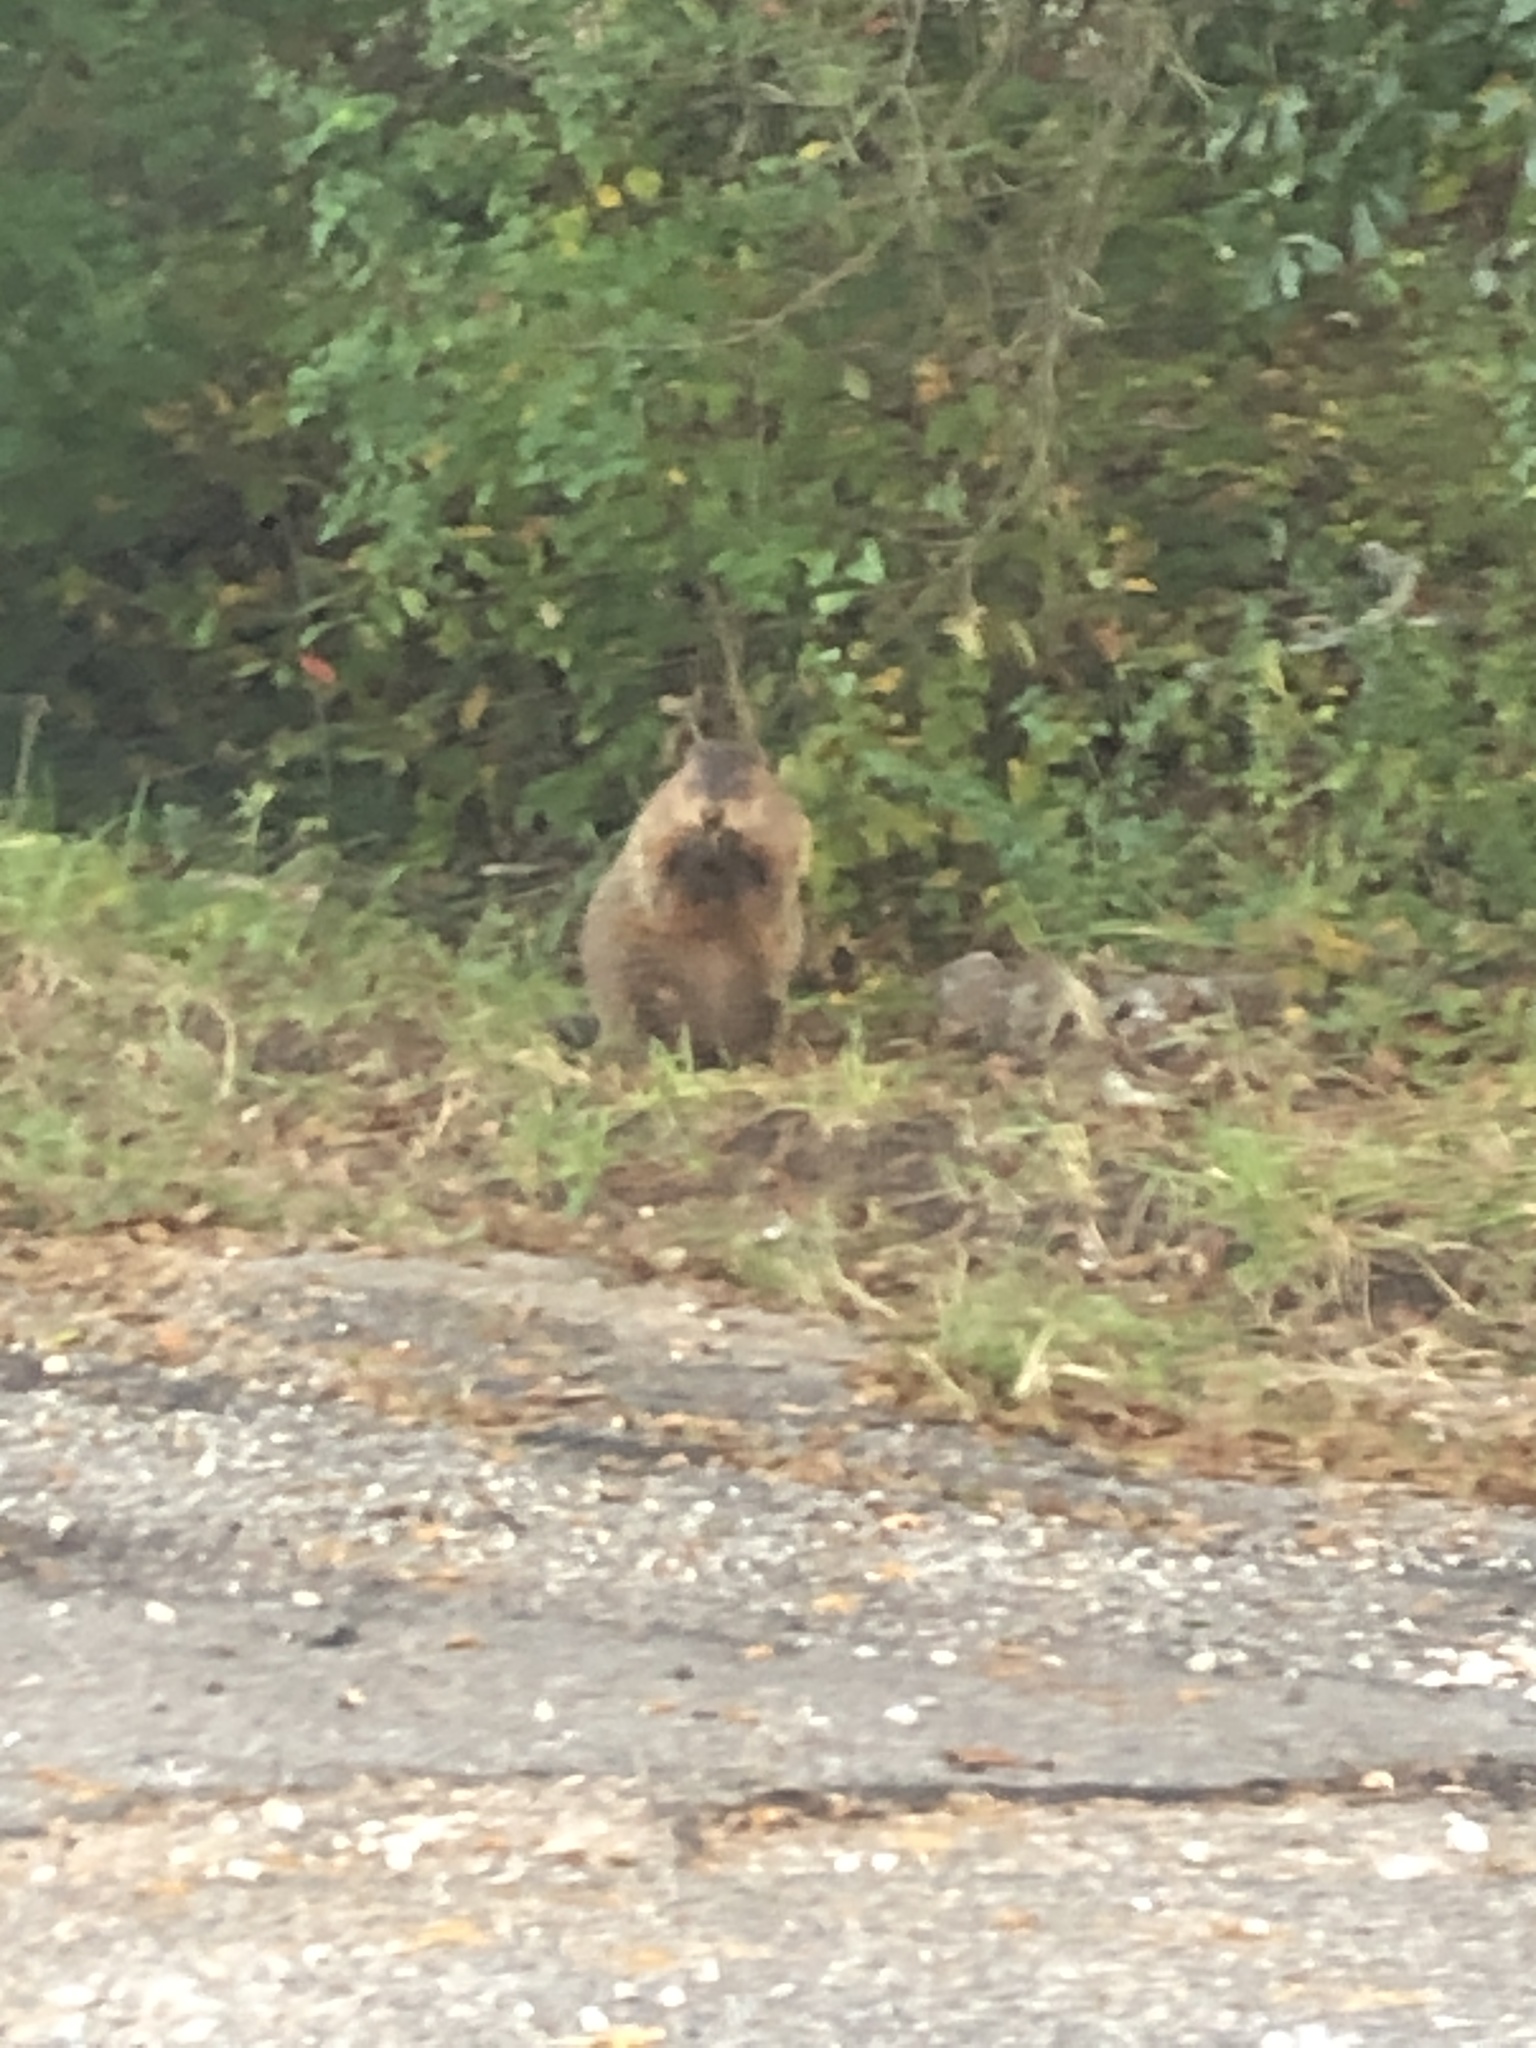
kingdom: Animalia
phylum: Chordata
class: Mammalia
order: Rodentia
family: Sciuridae
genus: Marmota
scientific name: Marmota monax
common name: Groundhog
